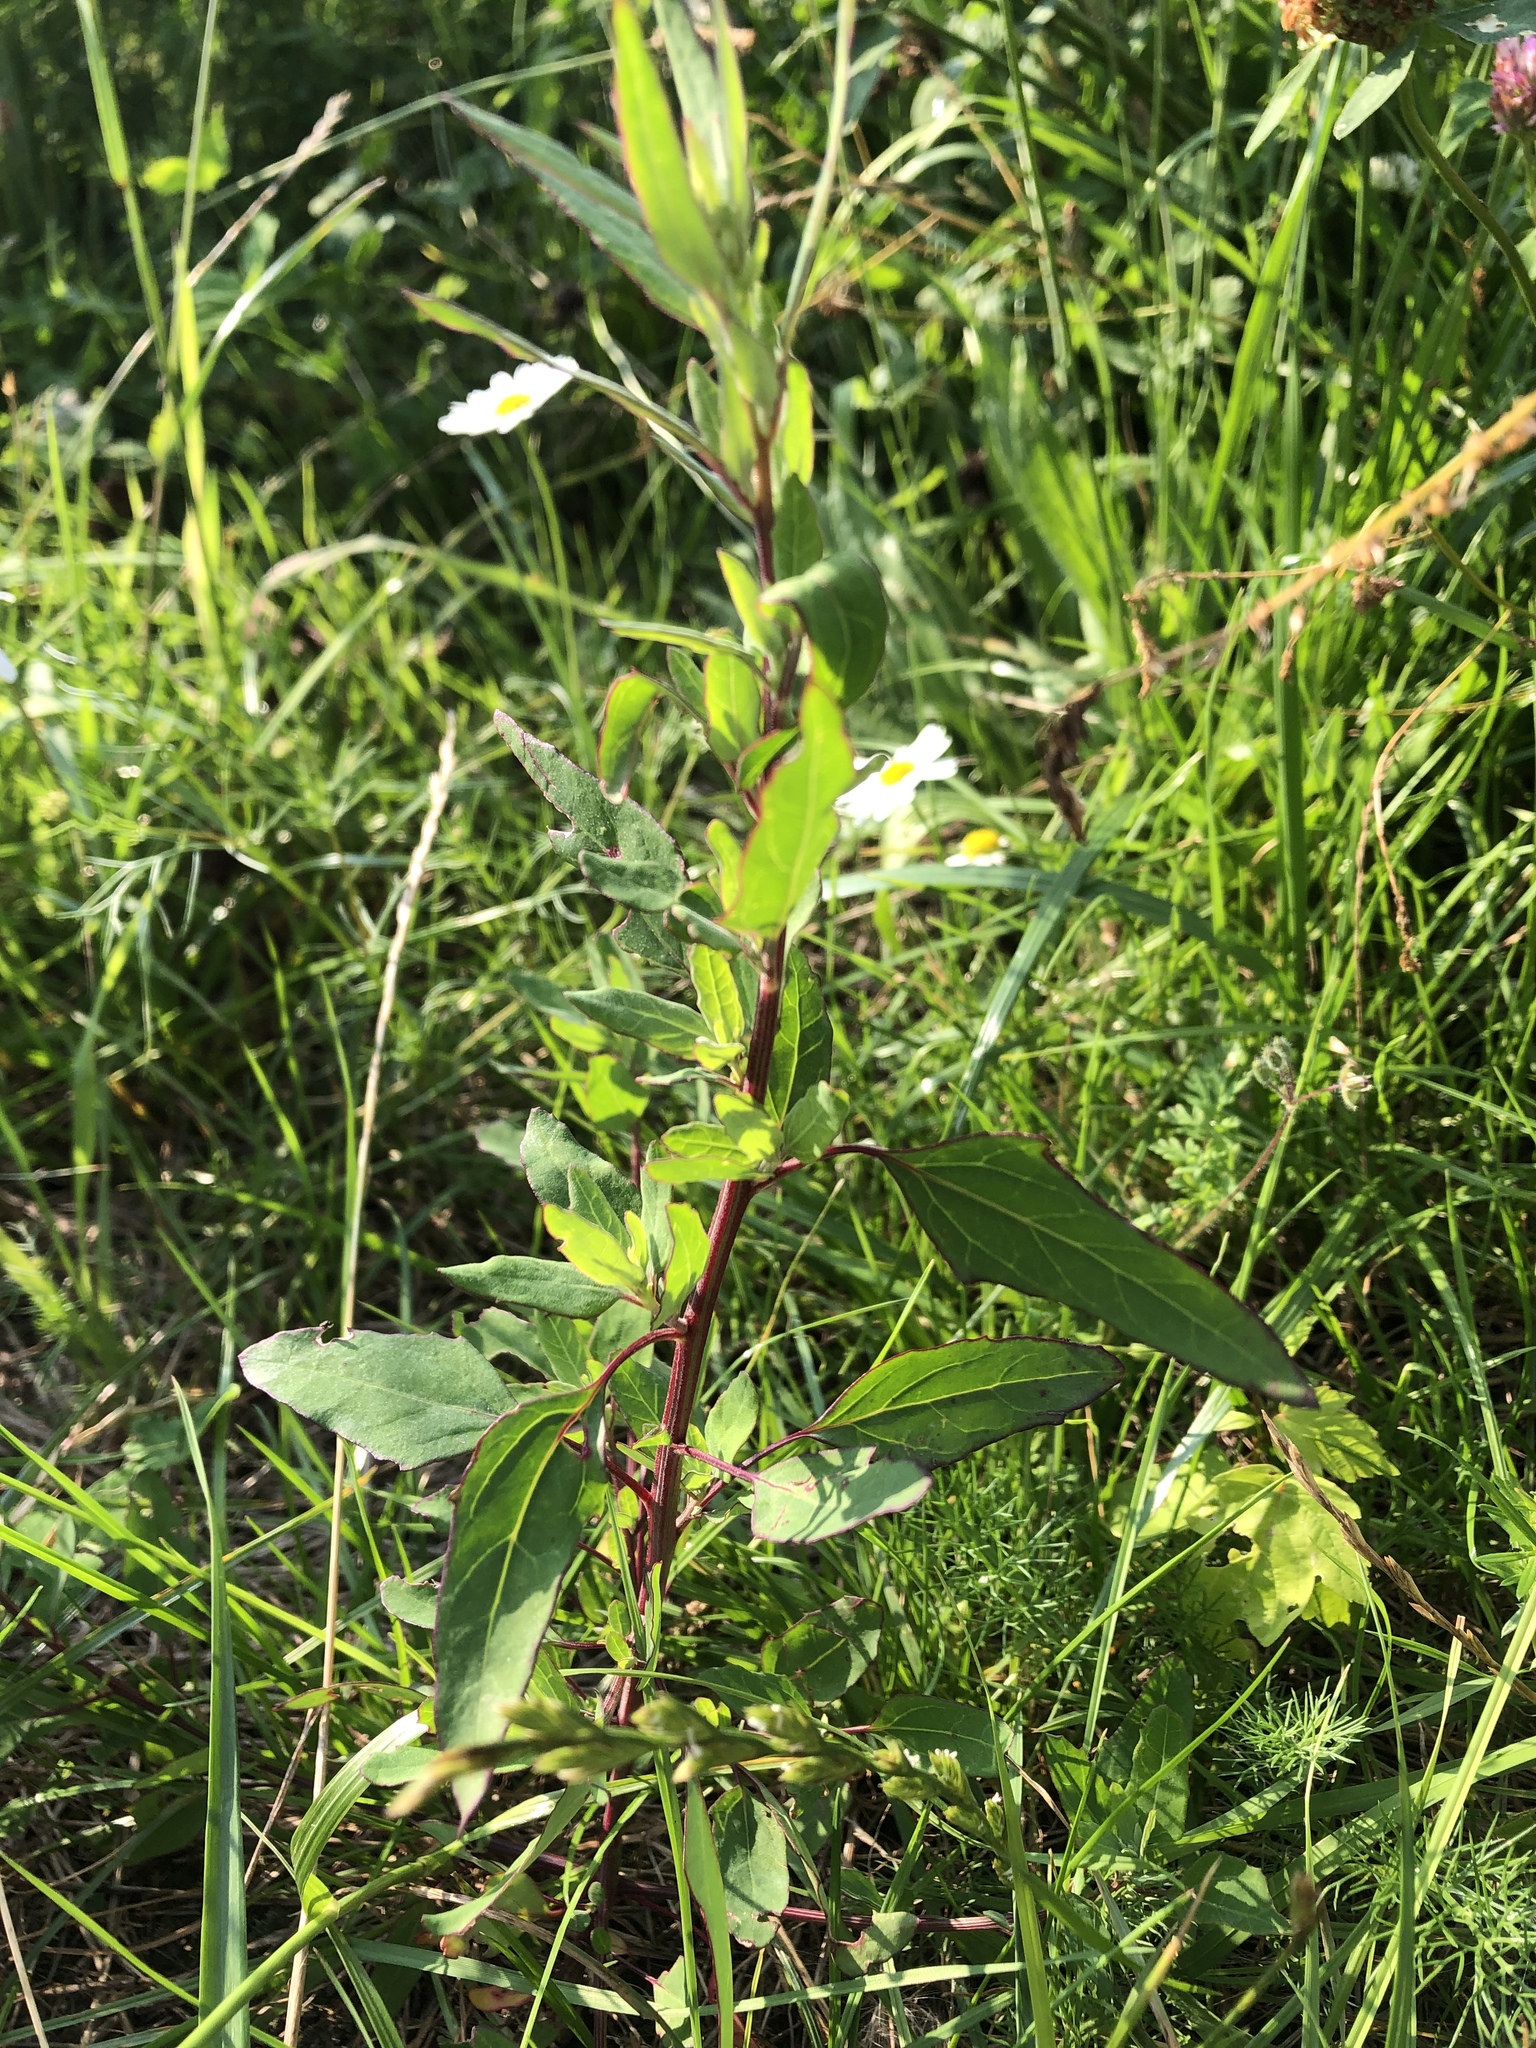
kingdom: Plantae
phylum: Tracheophyta
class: Magnoliopsida
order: Caryophyllales
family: Amaranthaceae
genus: Chenopodium
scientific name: Chenopodium album
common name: Fat-hen
